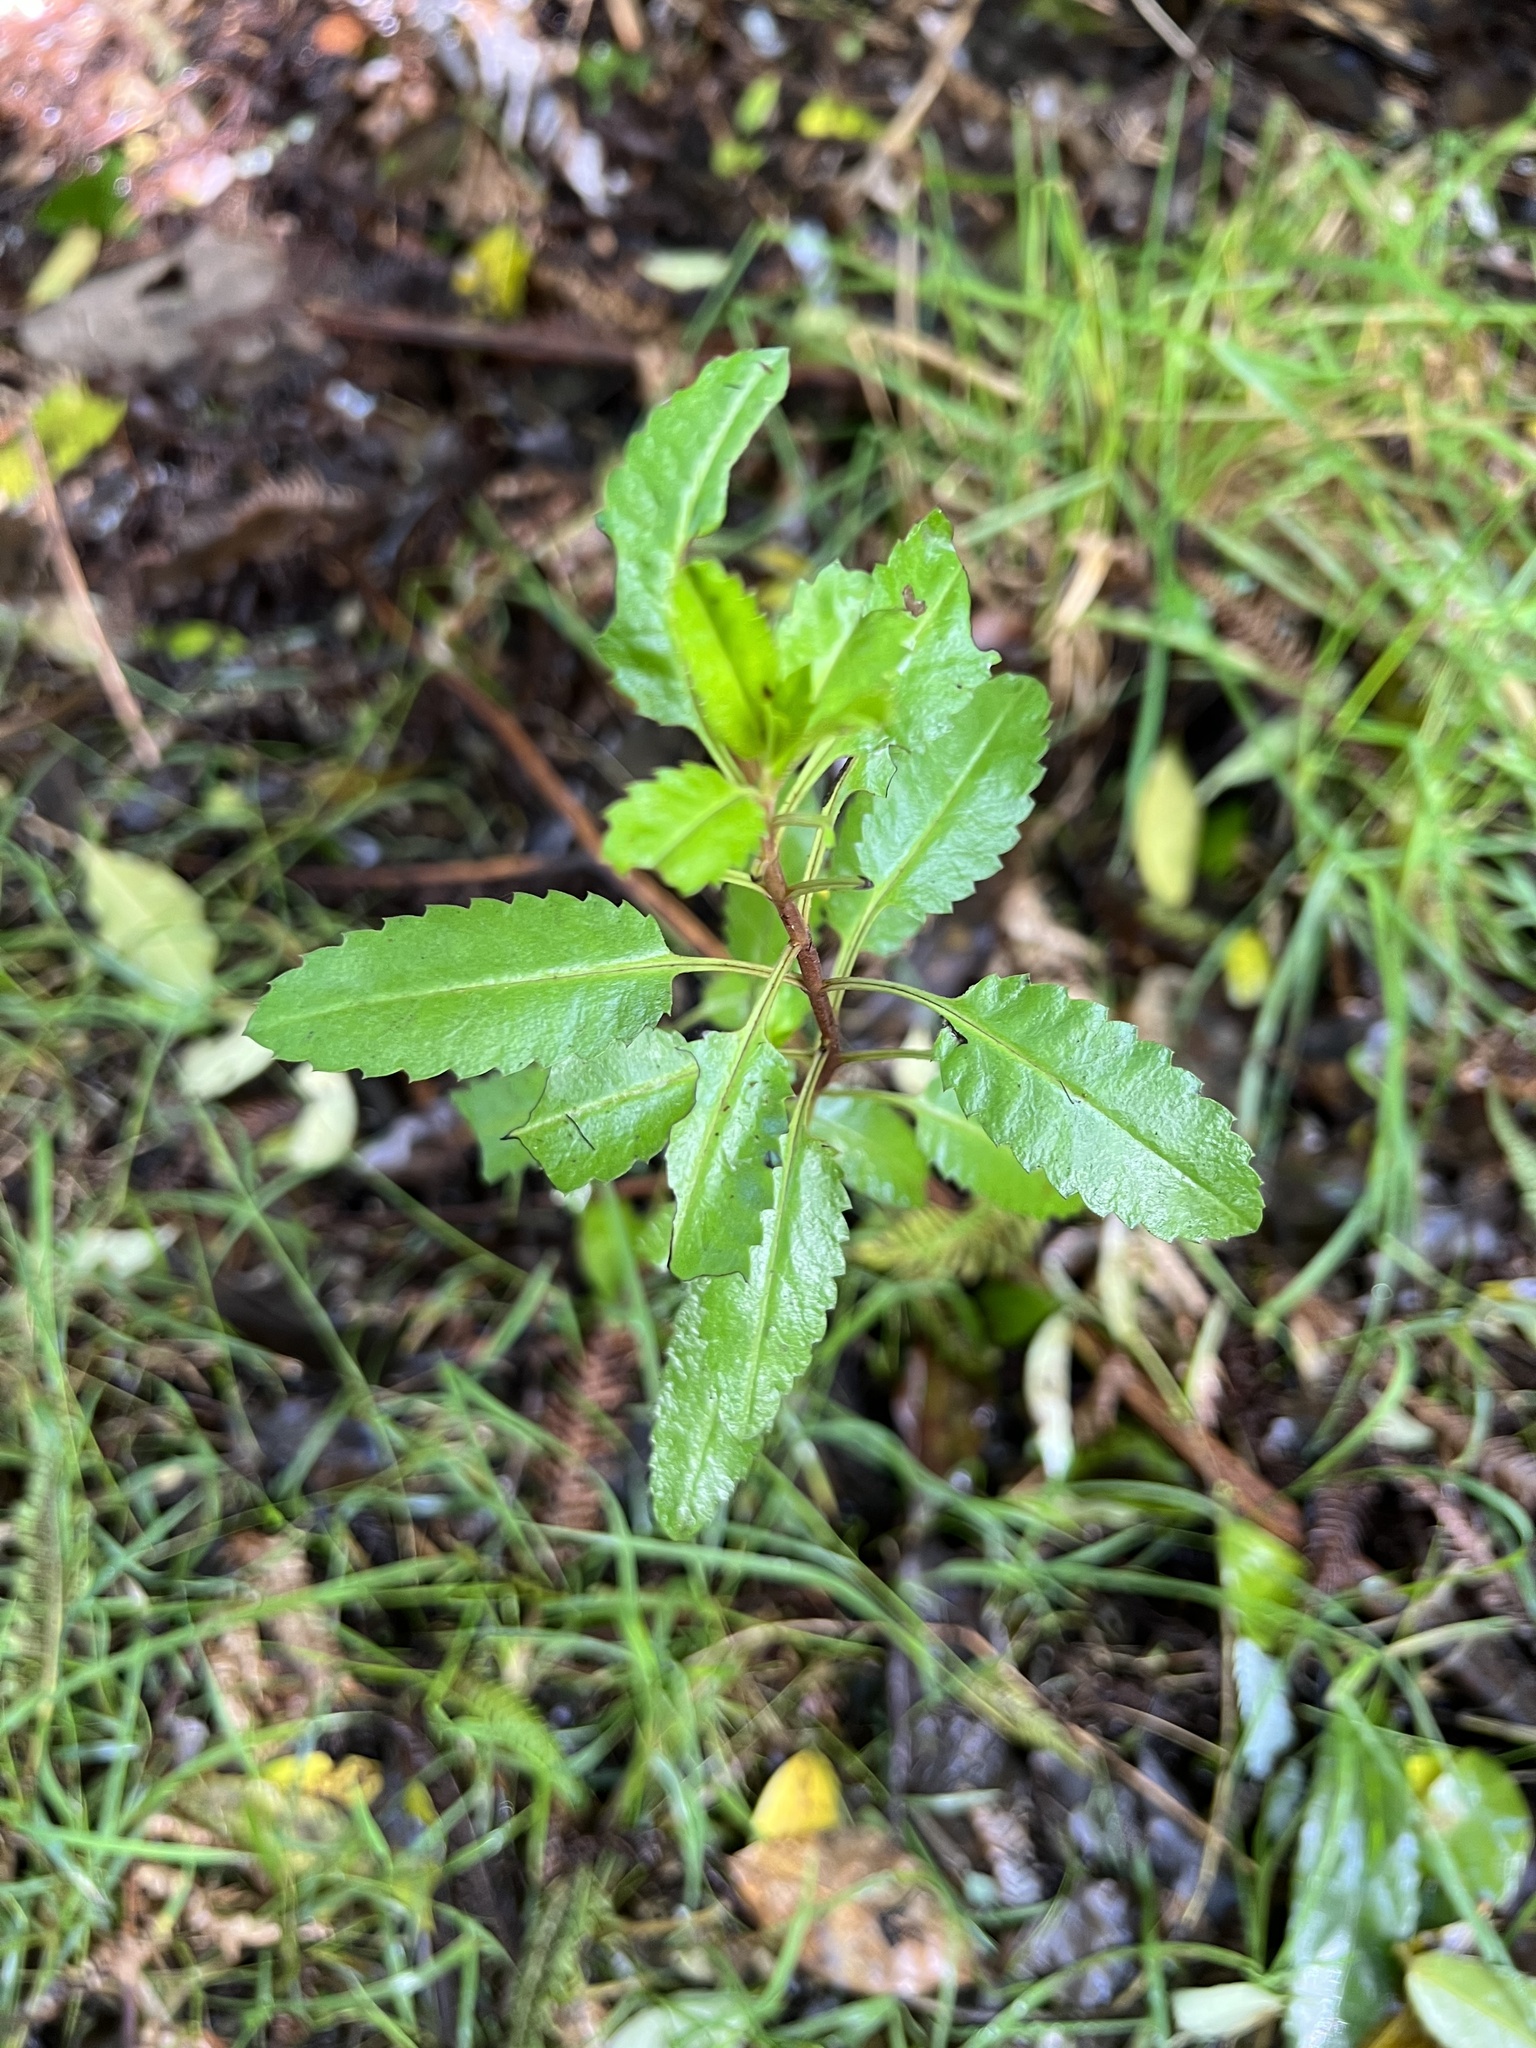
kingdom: Plantae
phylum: Tracheophyta
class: Magnoliopsida
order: Saxifragales
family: Haloragaceae
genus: Haloragis
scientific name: Haloragis erecta
